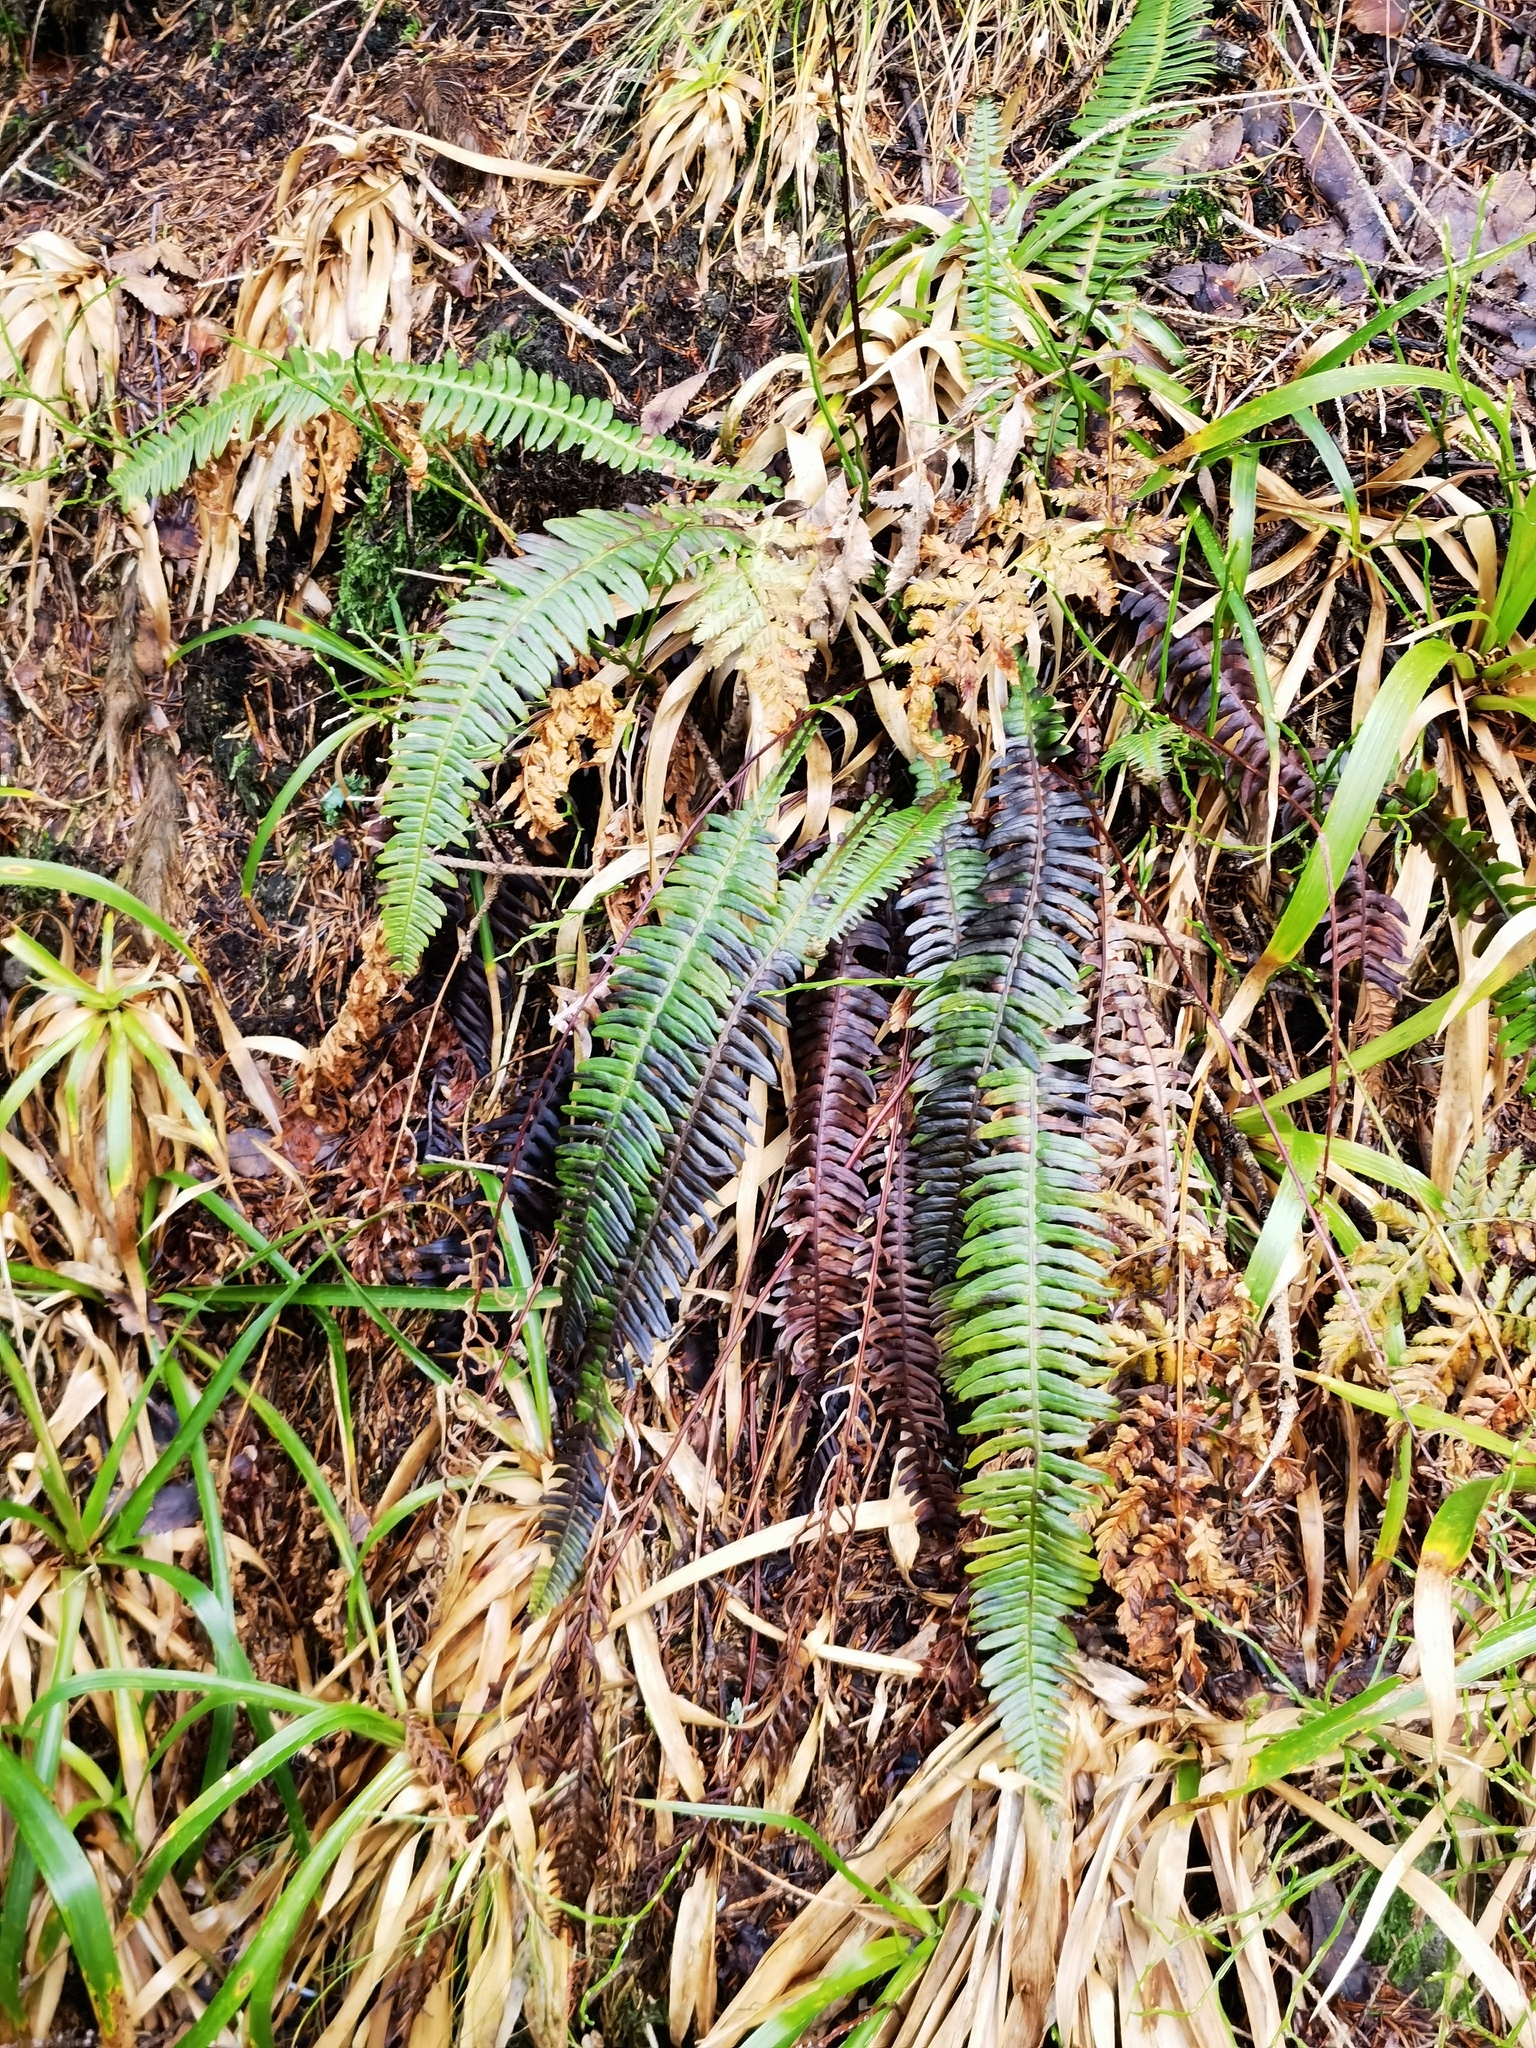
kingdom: Plantae
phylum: Tracheophyta
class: Polypodiopsida
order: Polypodiales
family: Blechnaceae
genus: Struthiopteris
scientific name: Struthiopteris spicant
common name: Deer fern
